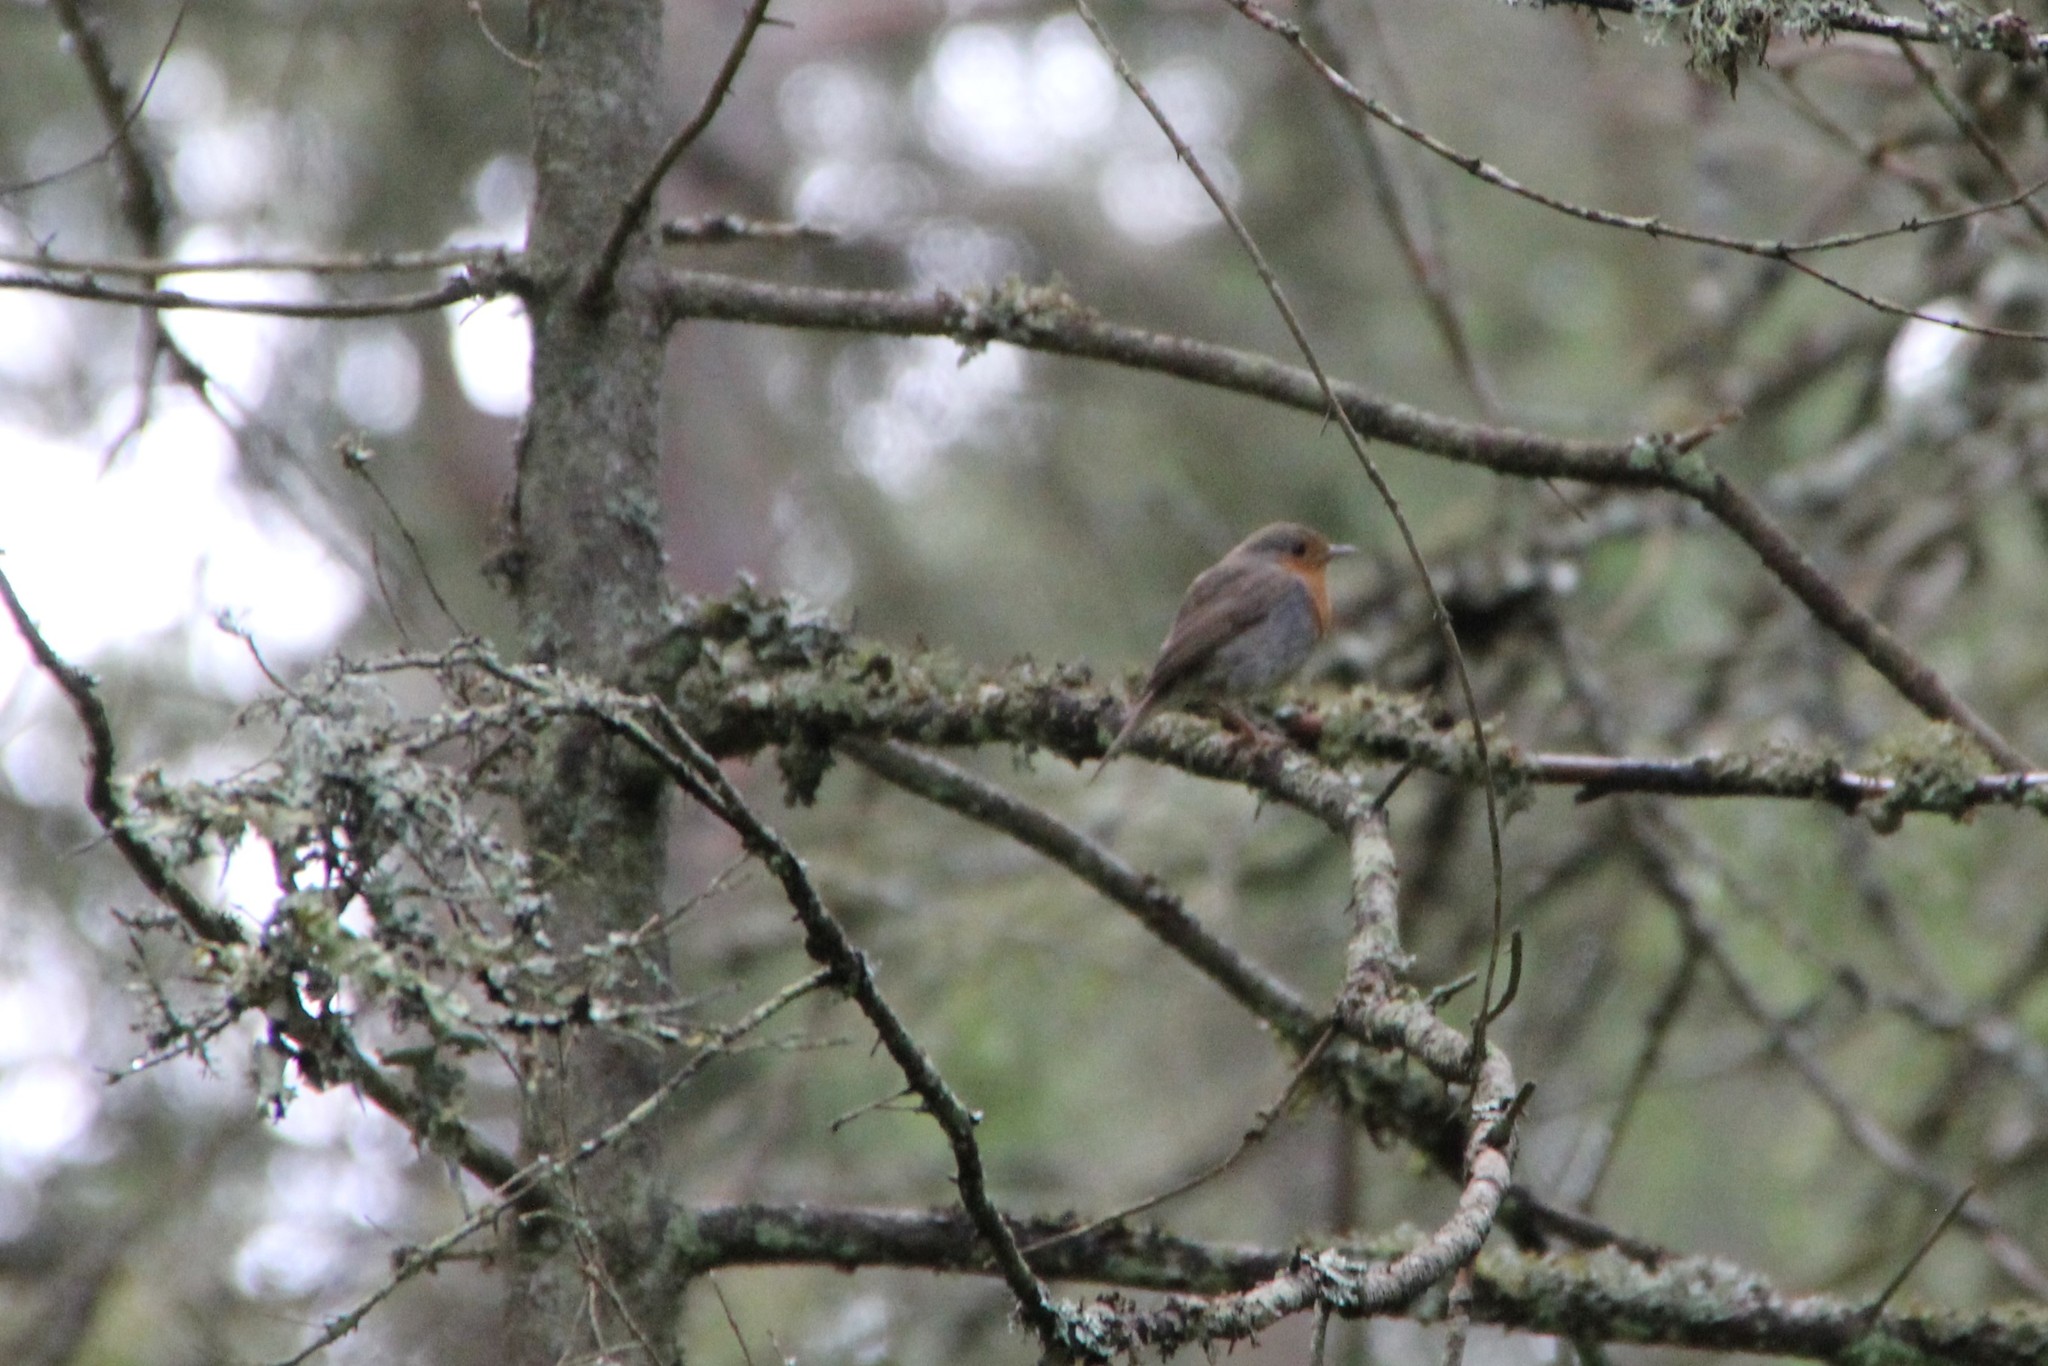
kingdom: Animalia
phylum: Chordata
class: Aves
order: Passeriformes
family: Muscicapidae
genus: Erithacus
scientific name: Erithacus rubecula
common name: European robin
